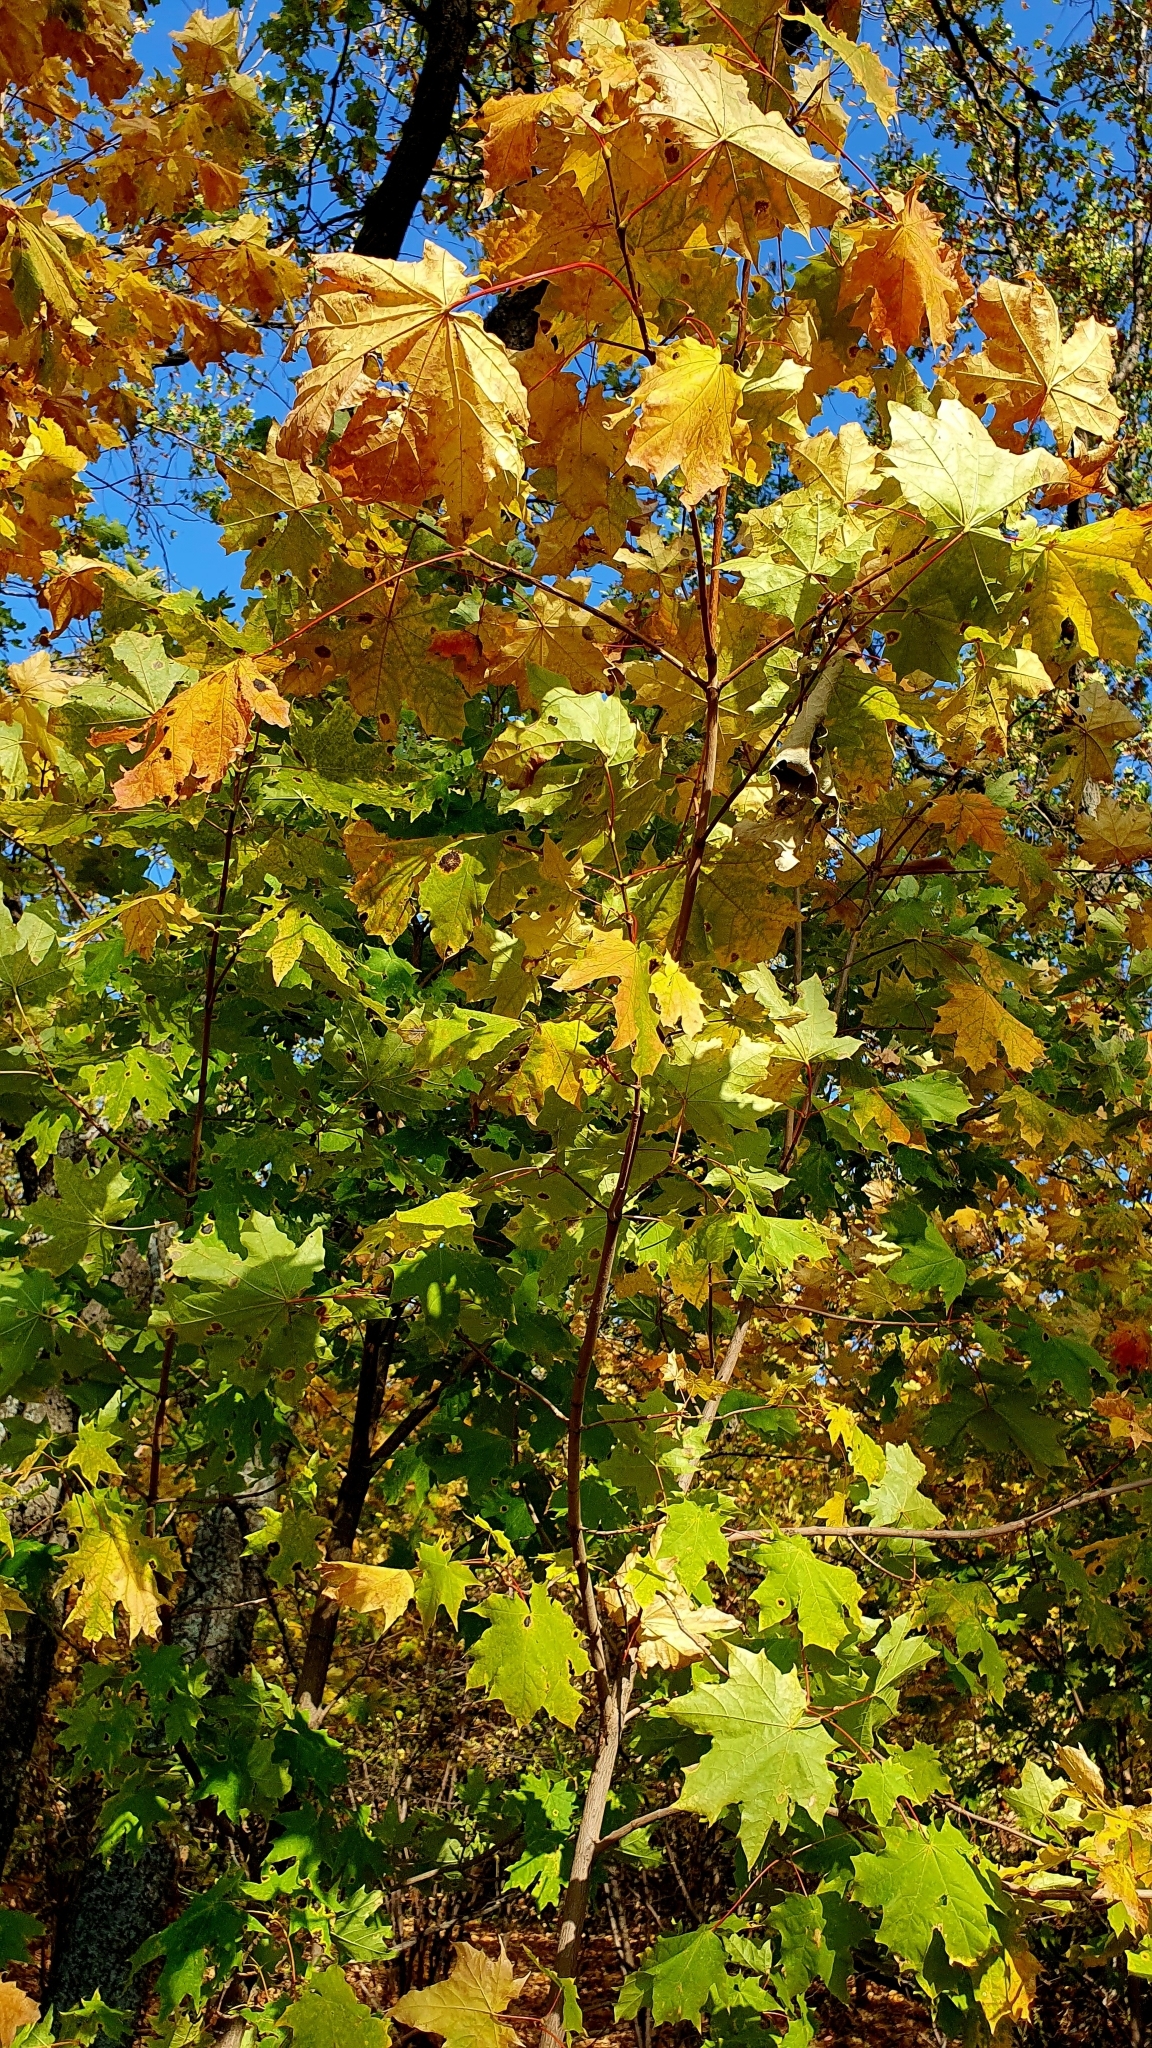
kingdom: Plantae
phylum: Tracheophyta
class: Magnoliopsida
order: Sapindales
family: Sapindaceae
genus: Acer
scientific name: Acer platanoides
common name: Norway maple
